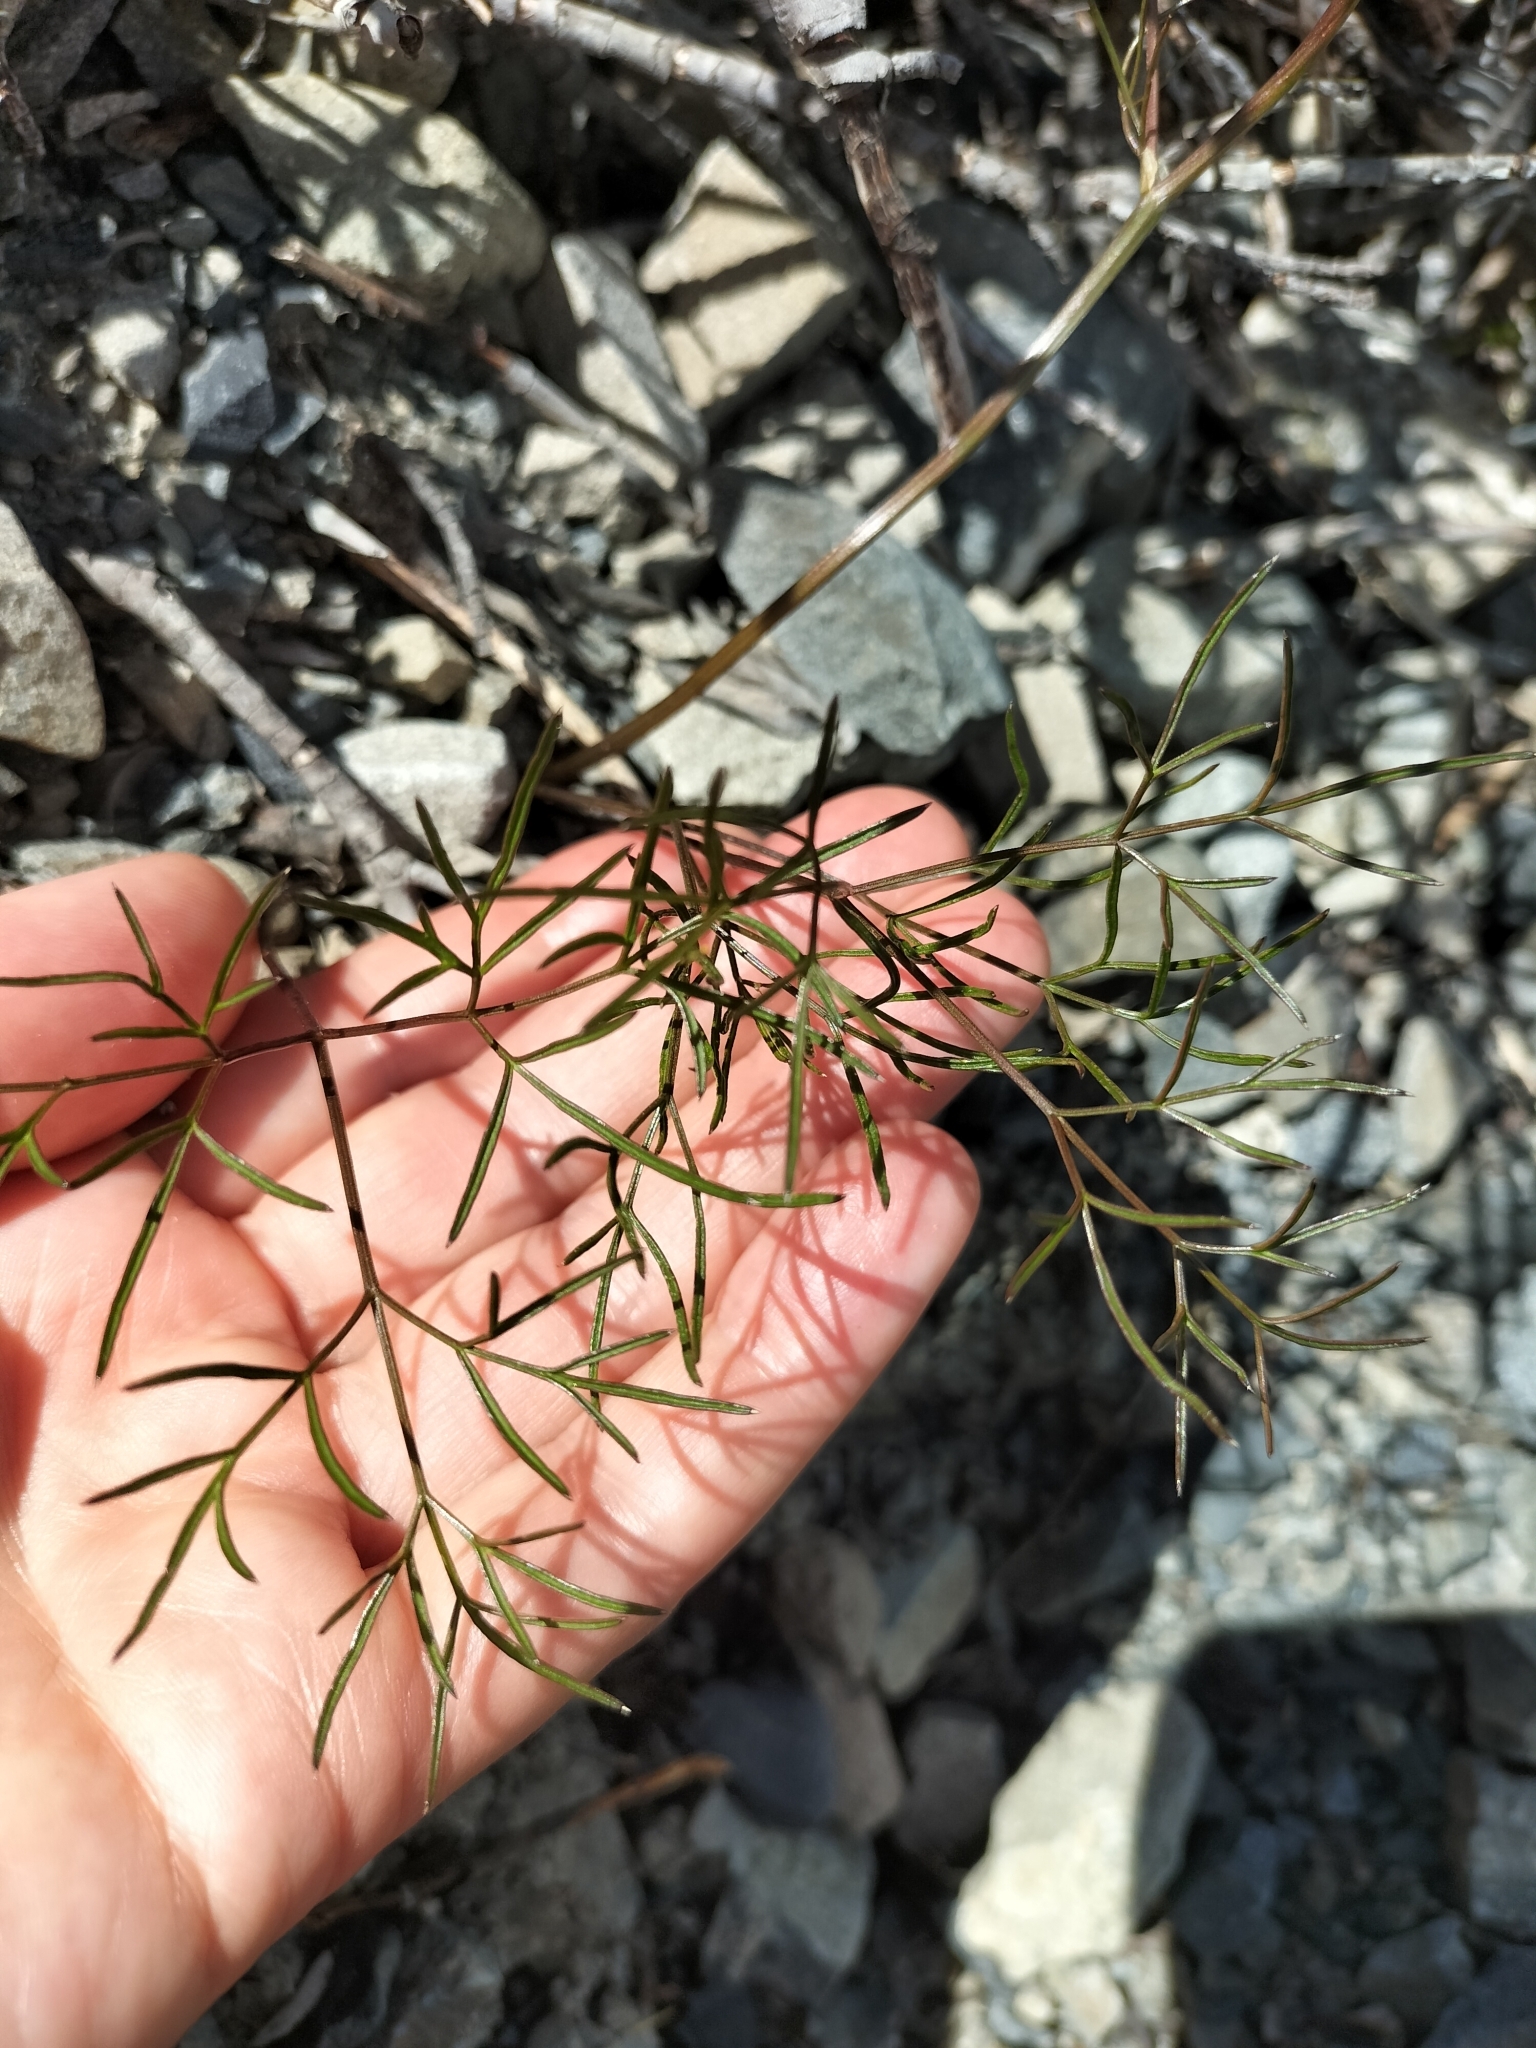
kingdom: Plantae
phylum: Tracheophyta
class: Magnoliopsida
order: Apiales
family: Apiaceae
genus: Anisotome
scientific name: Anisotome filifolia
